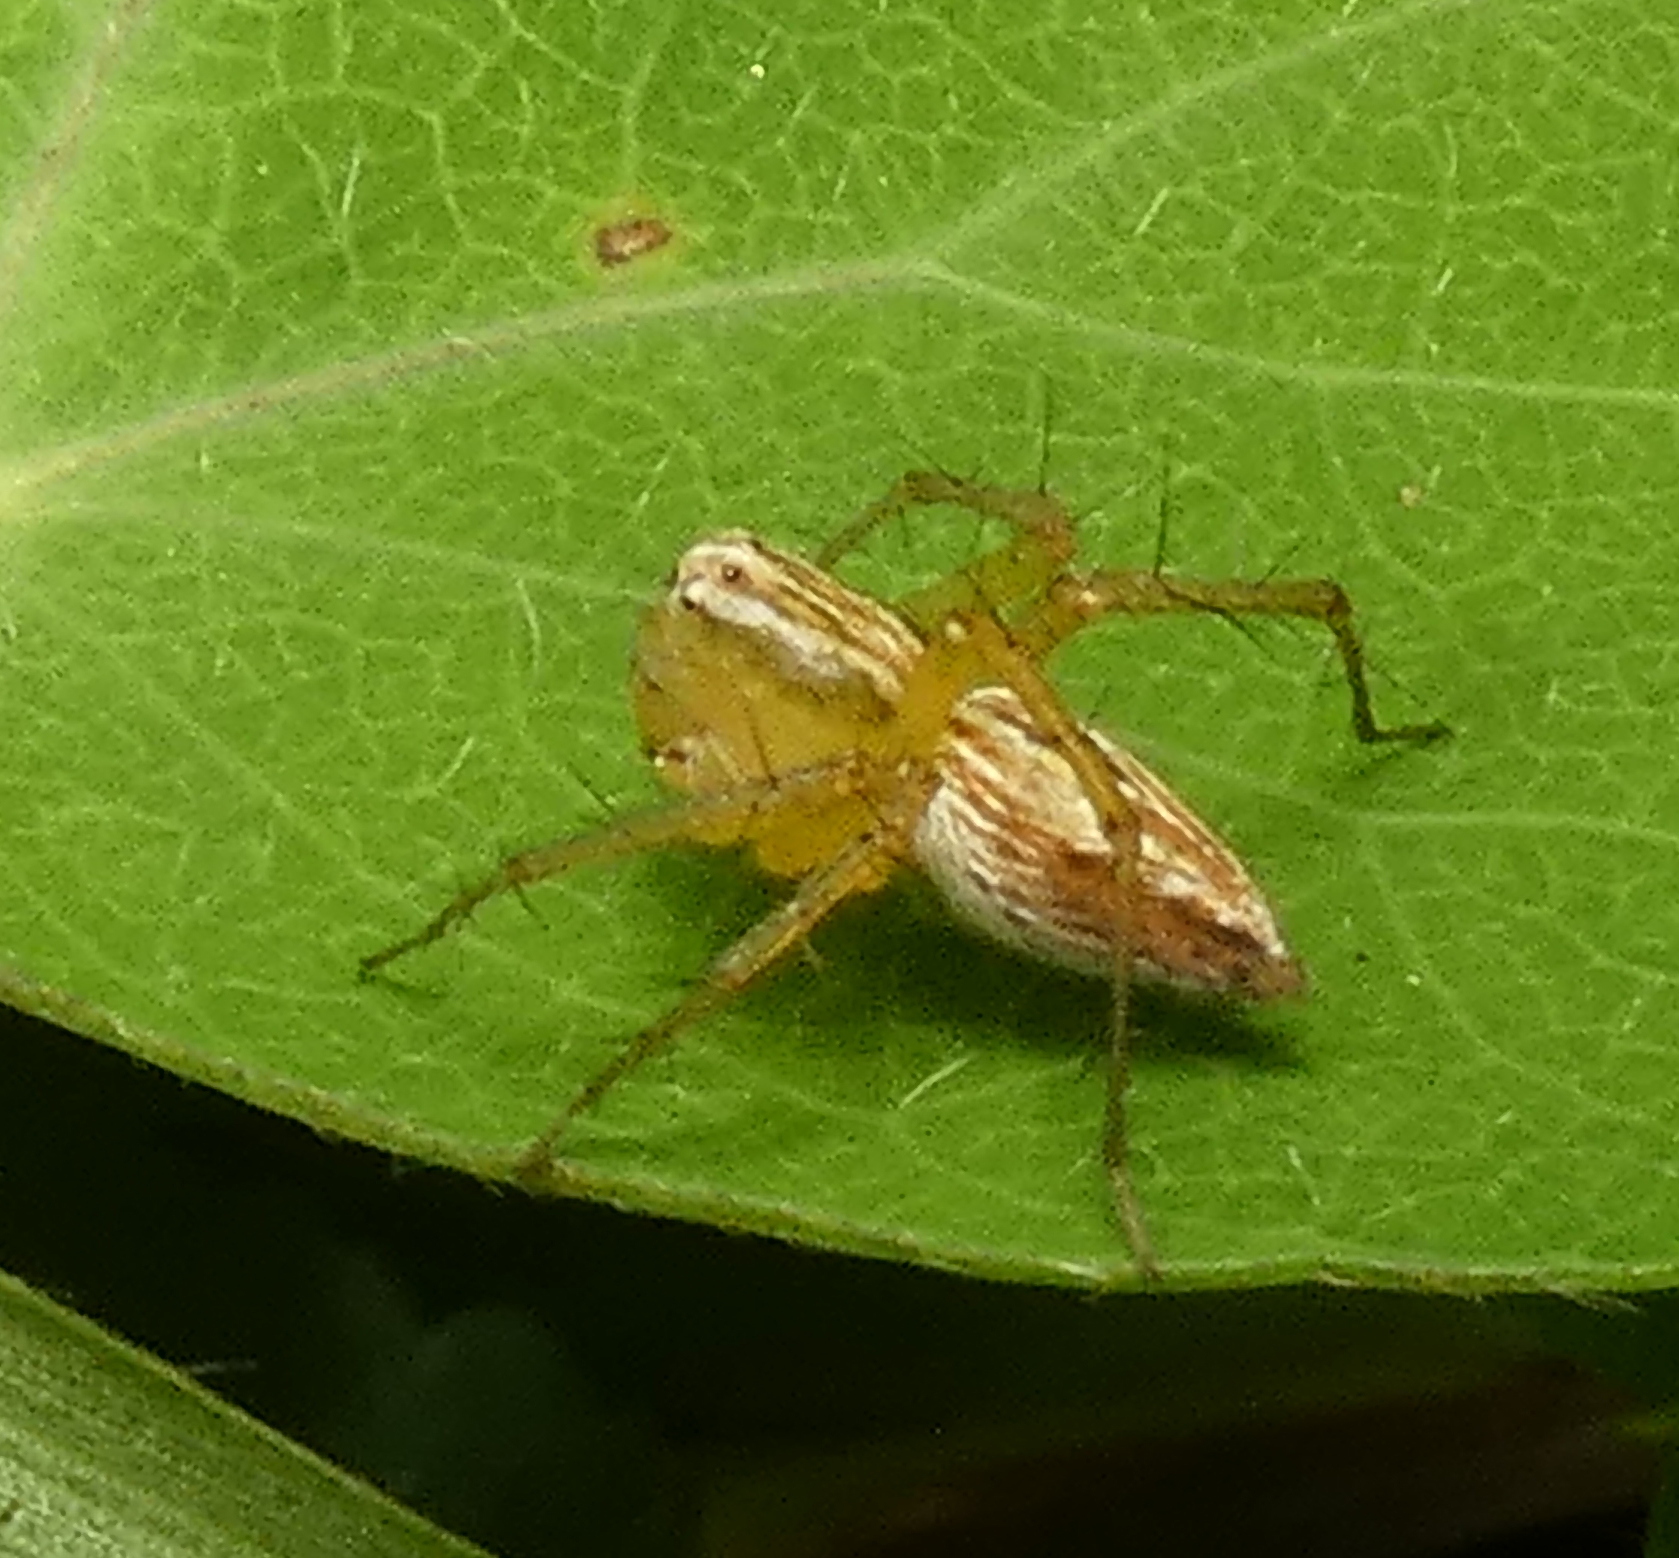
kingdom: Animalia
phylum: Arthropoda
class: Arachnida
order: Araneae
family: Oxyopidae
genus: Oxyopes
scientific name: Oxyopes salticus
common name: Lynx spiders
